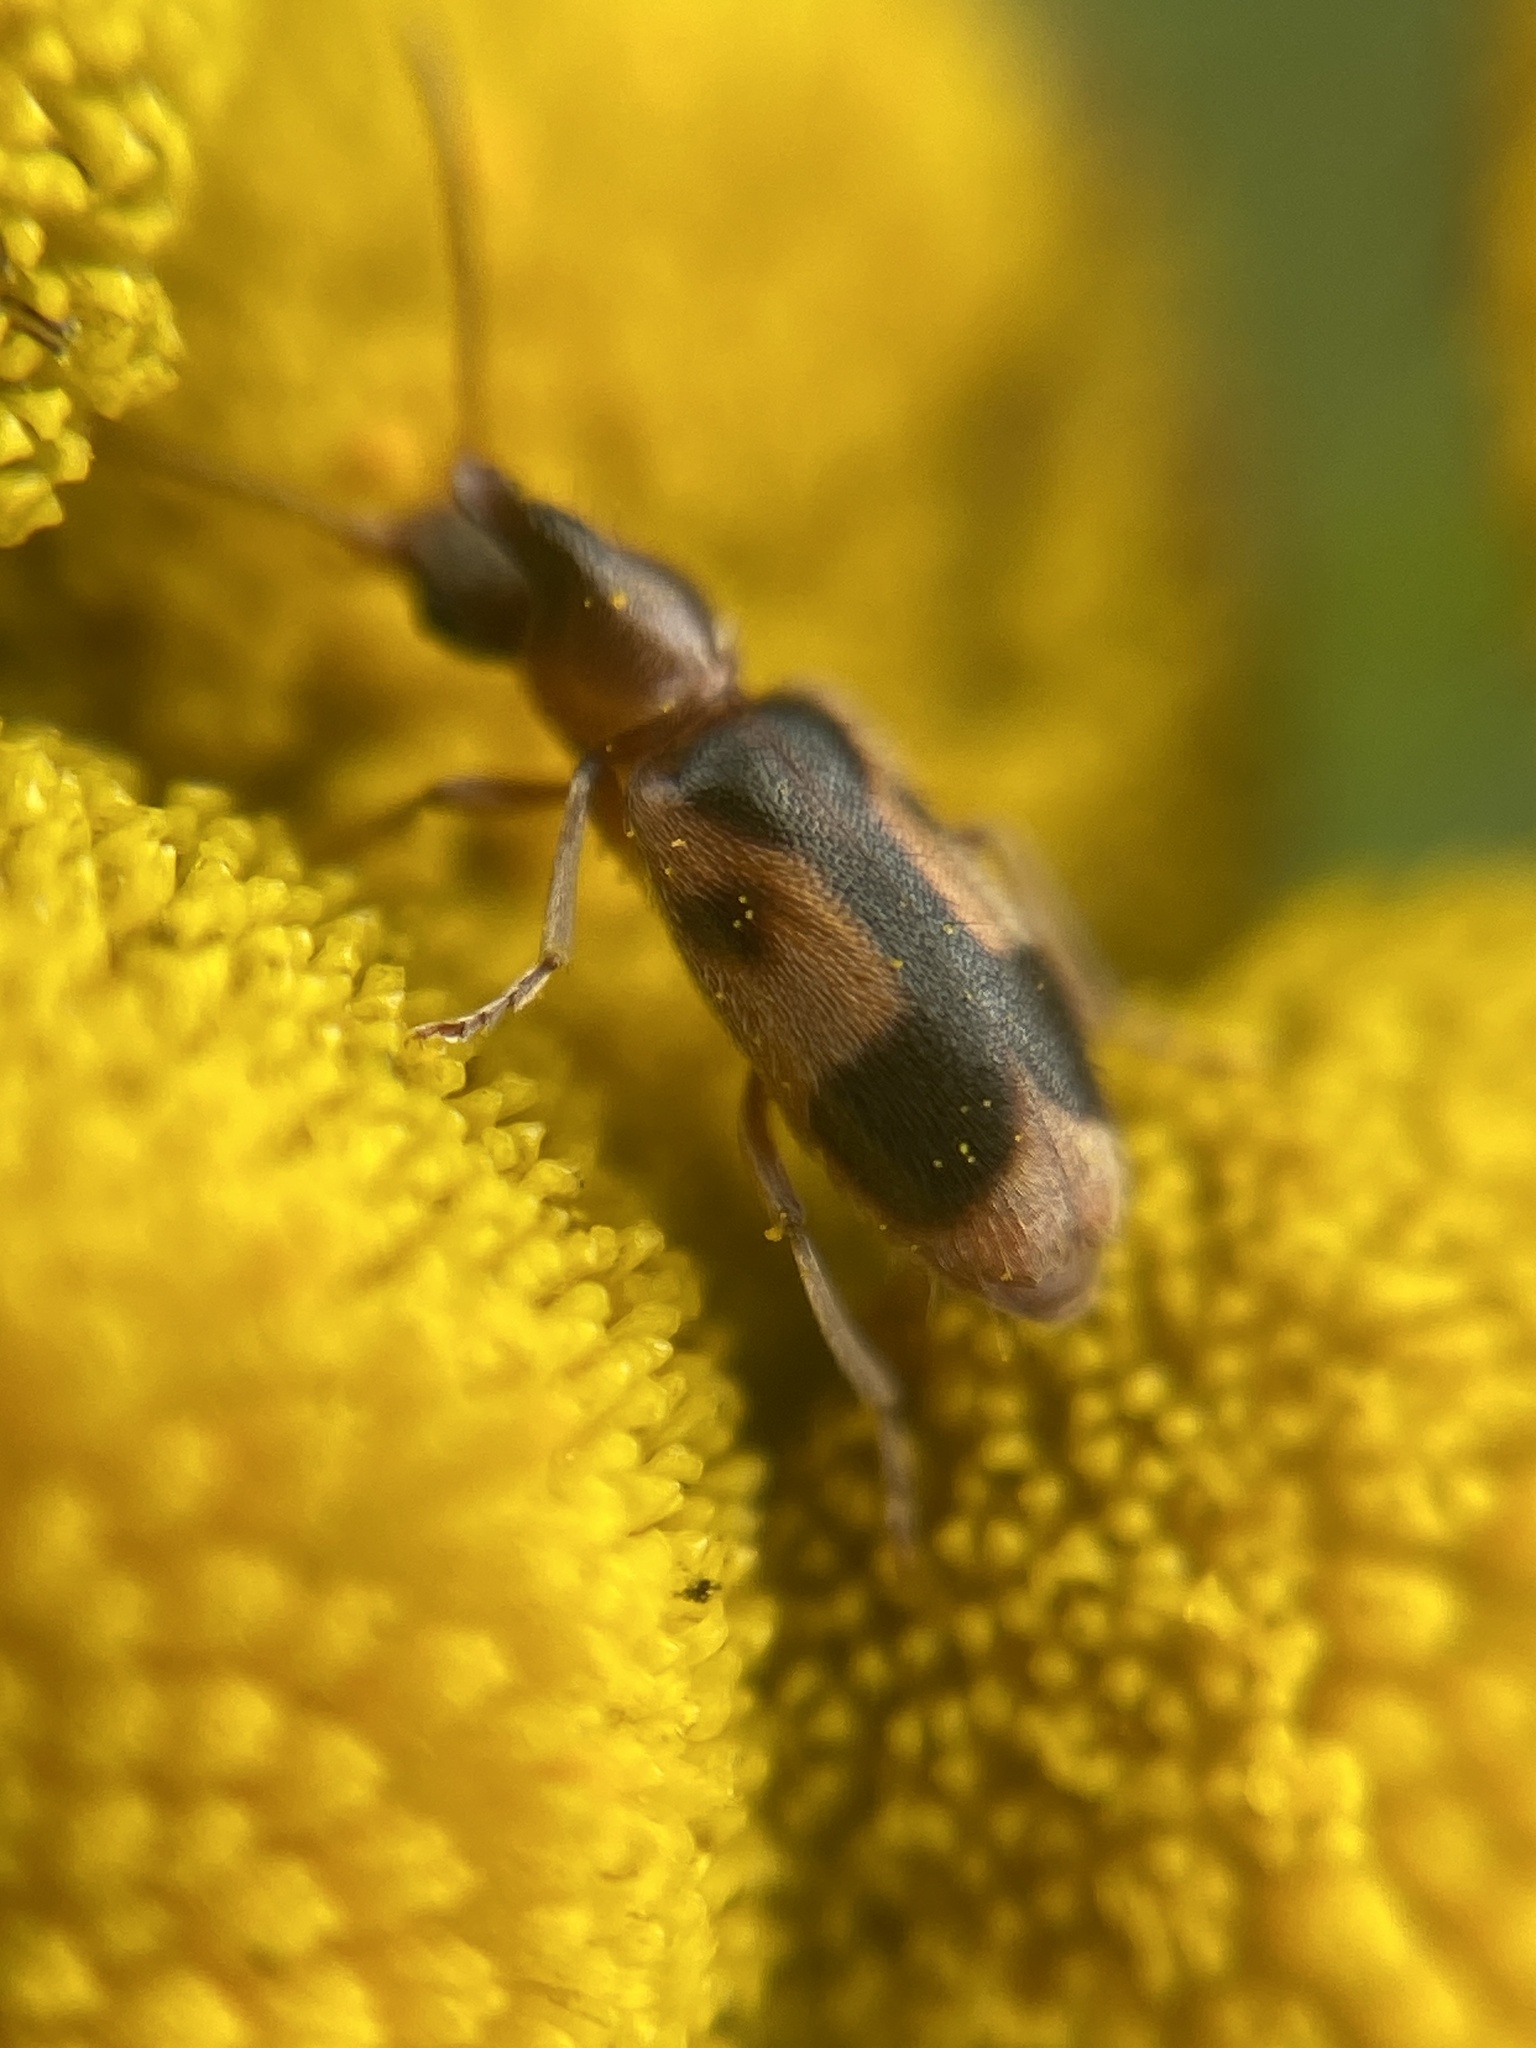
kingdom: Animalia
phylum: Arthropoda
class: Insecta
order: Coleoptera
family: Anthicidae
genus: Notoxus
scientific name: Notoxus monoceros
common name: Monoceros beetle
